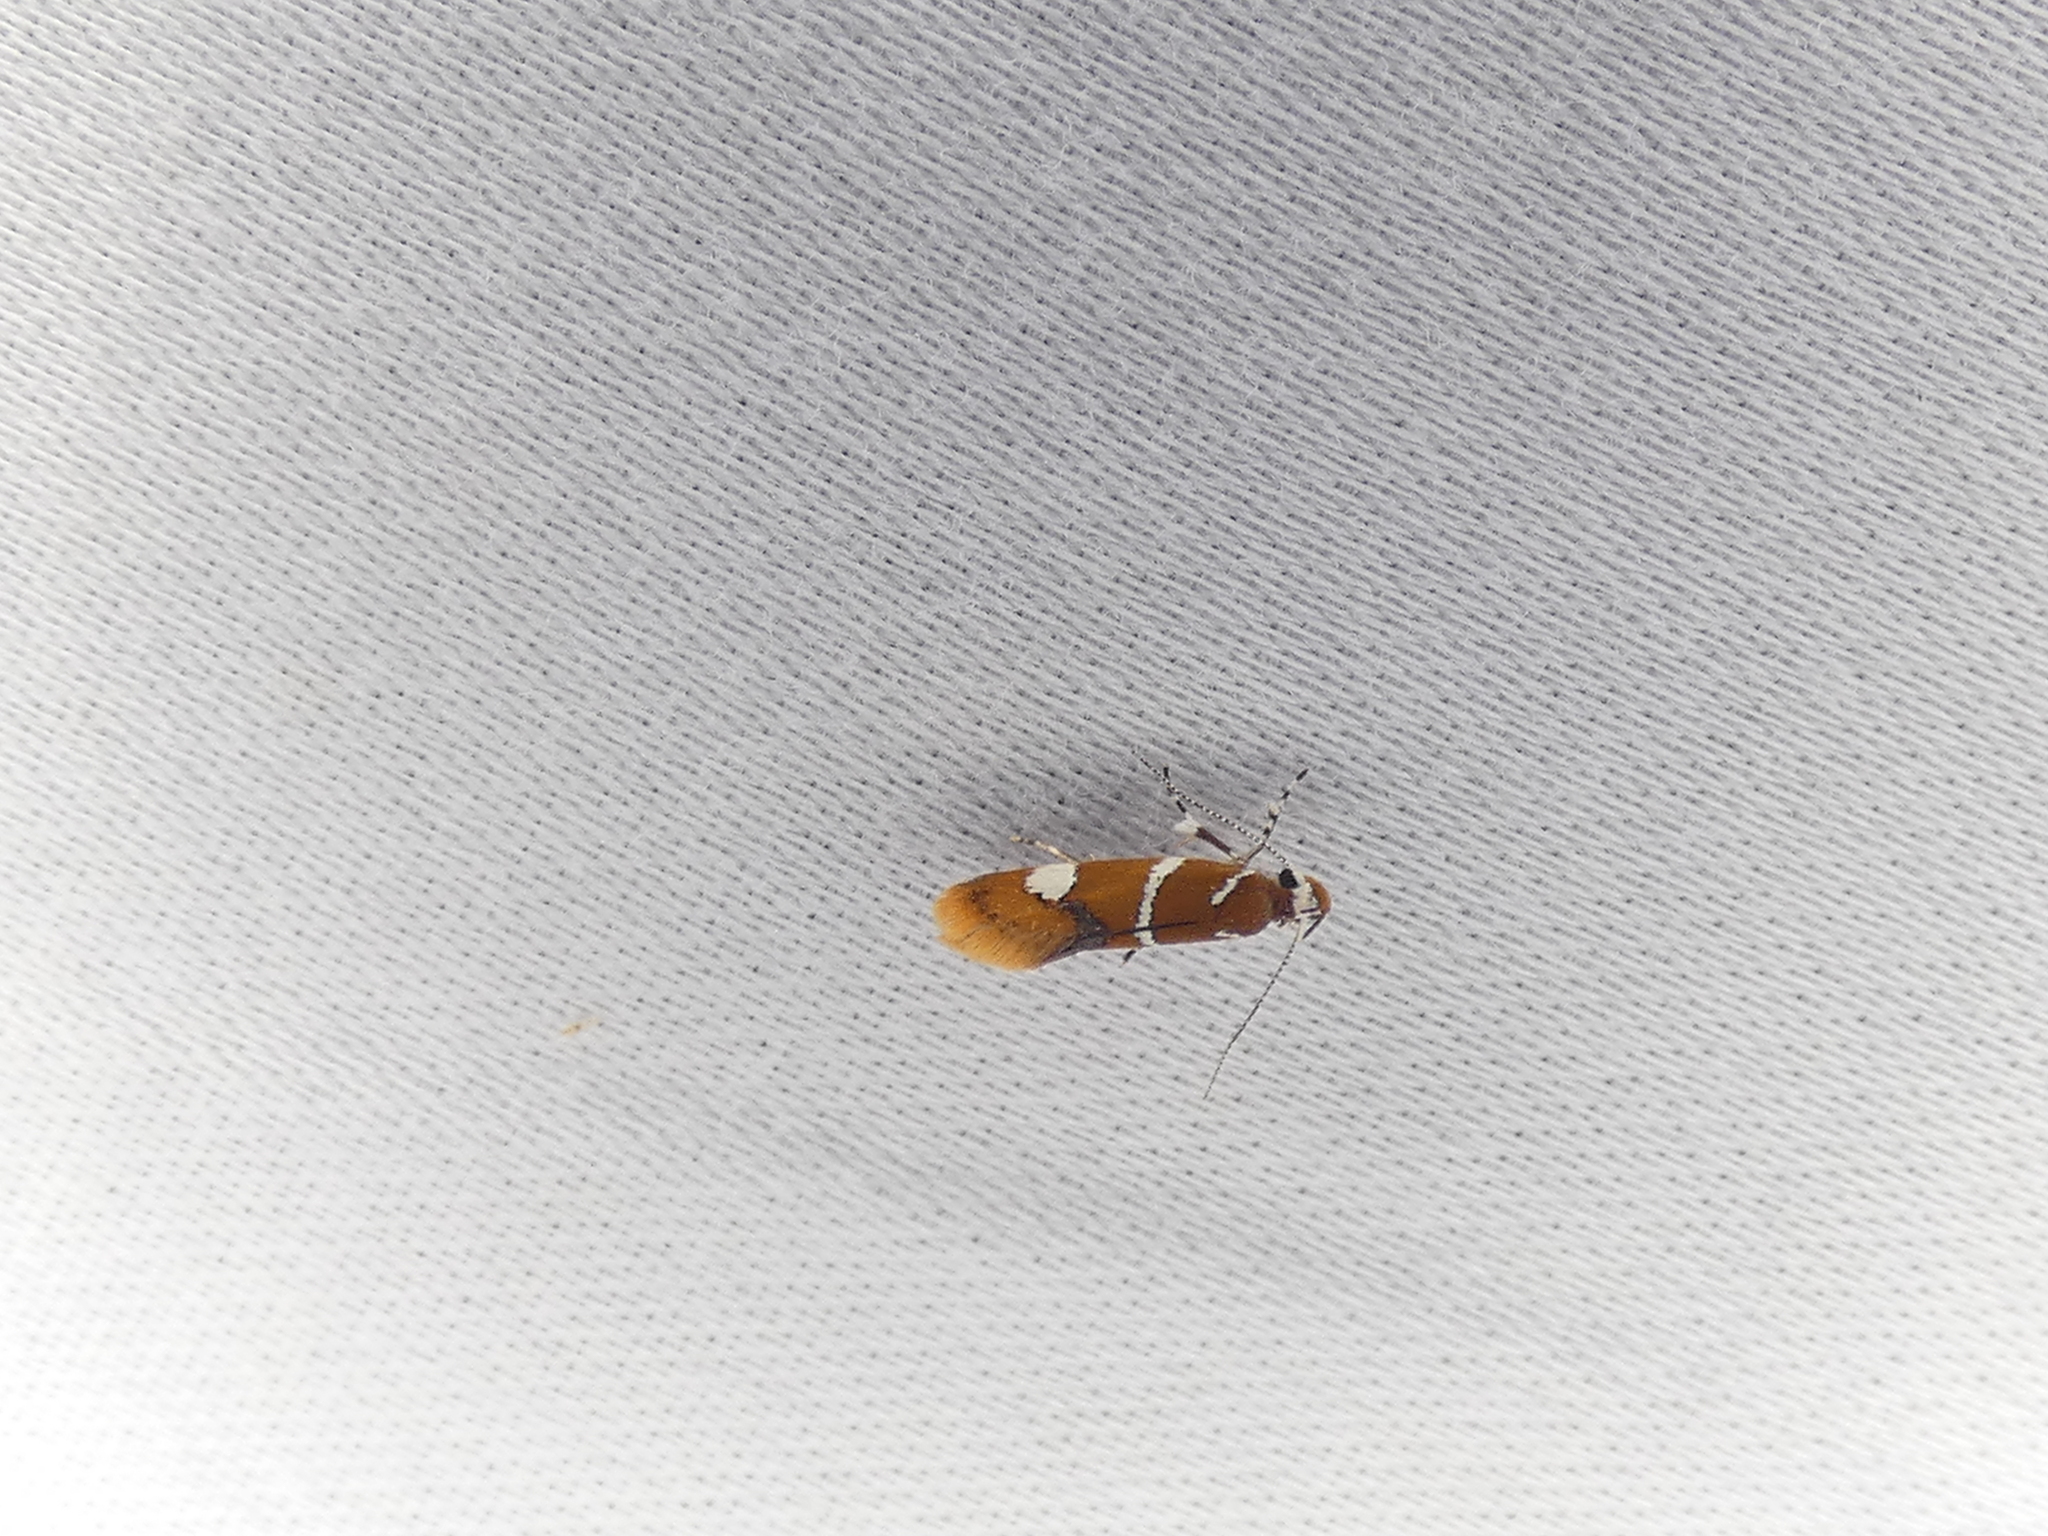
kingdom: Animalia
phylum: Arthropoda
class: Insecta
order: Lepidoptera
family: Oecophoridae
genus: Promalactis
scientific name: Promalactis suzukiella
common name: Moth
